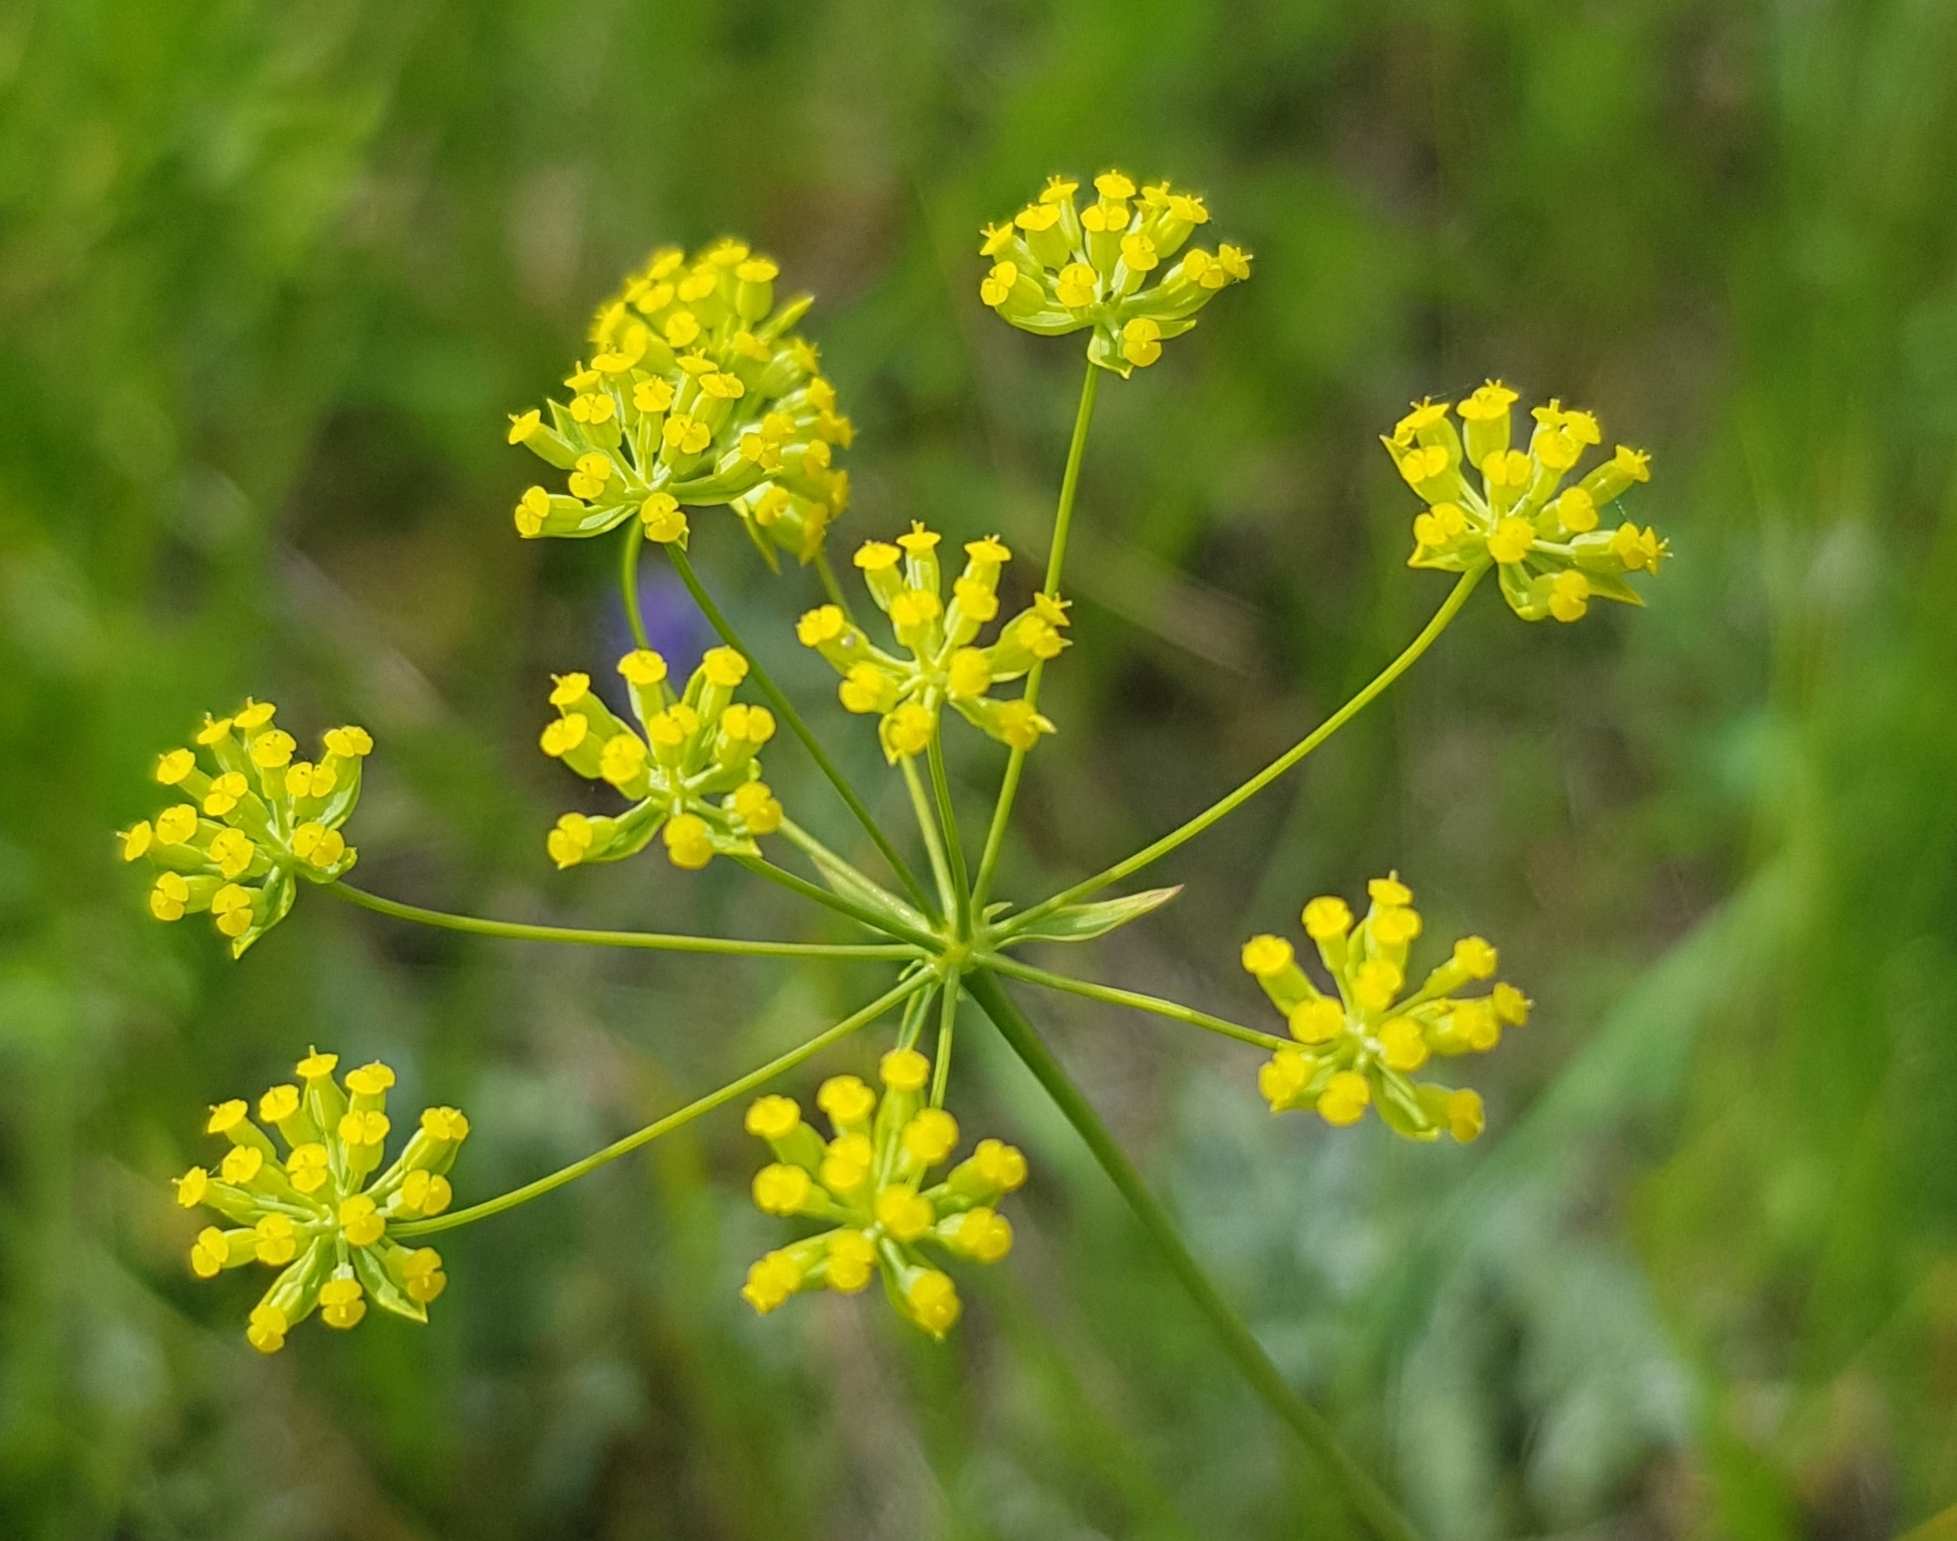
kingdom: Plantae
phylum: Tracheophyta
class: Magnoliopsida
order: Apiales
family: Apiaceae
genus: Bupleurum
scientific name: Bupleurum scorzonerifolium
